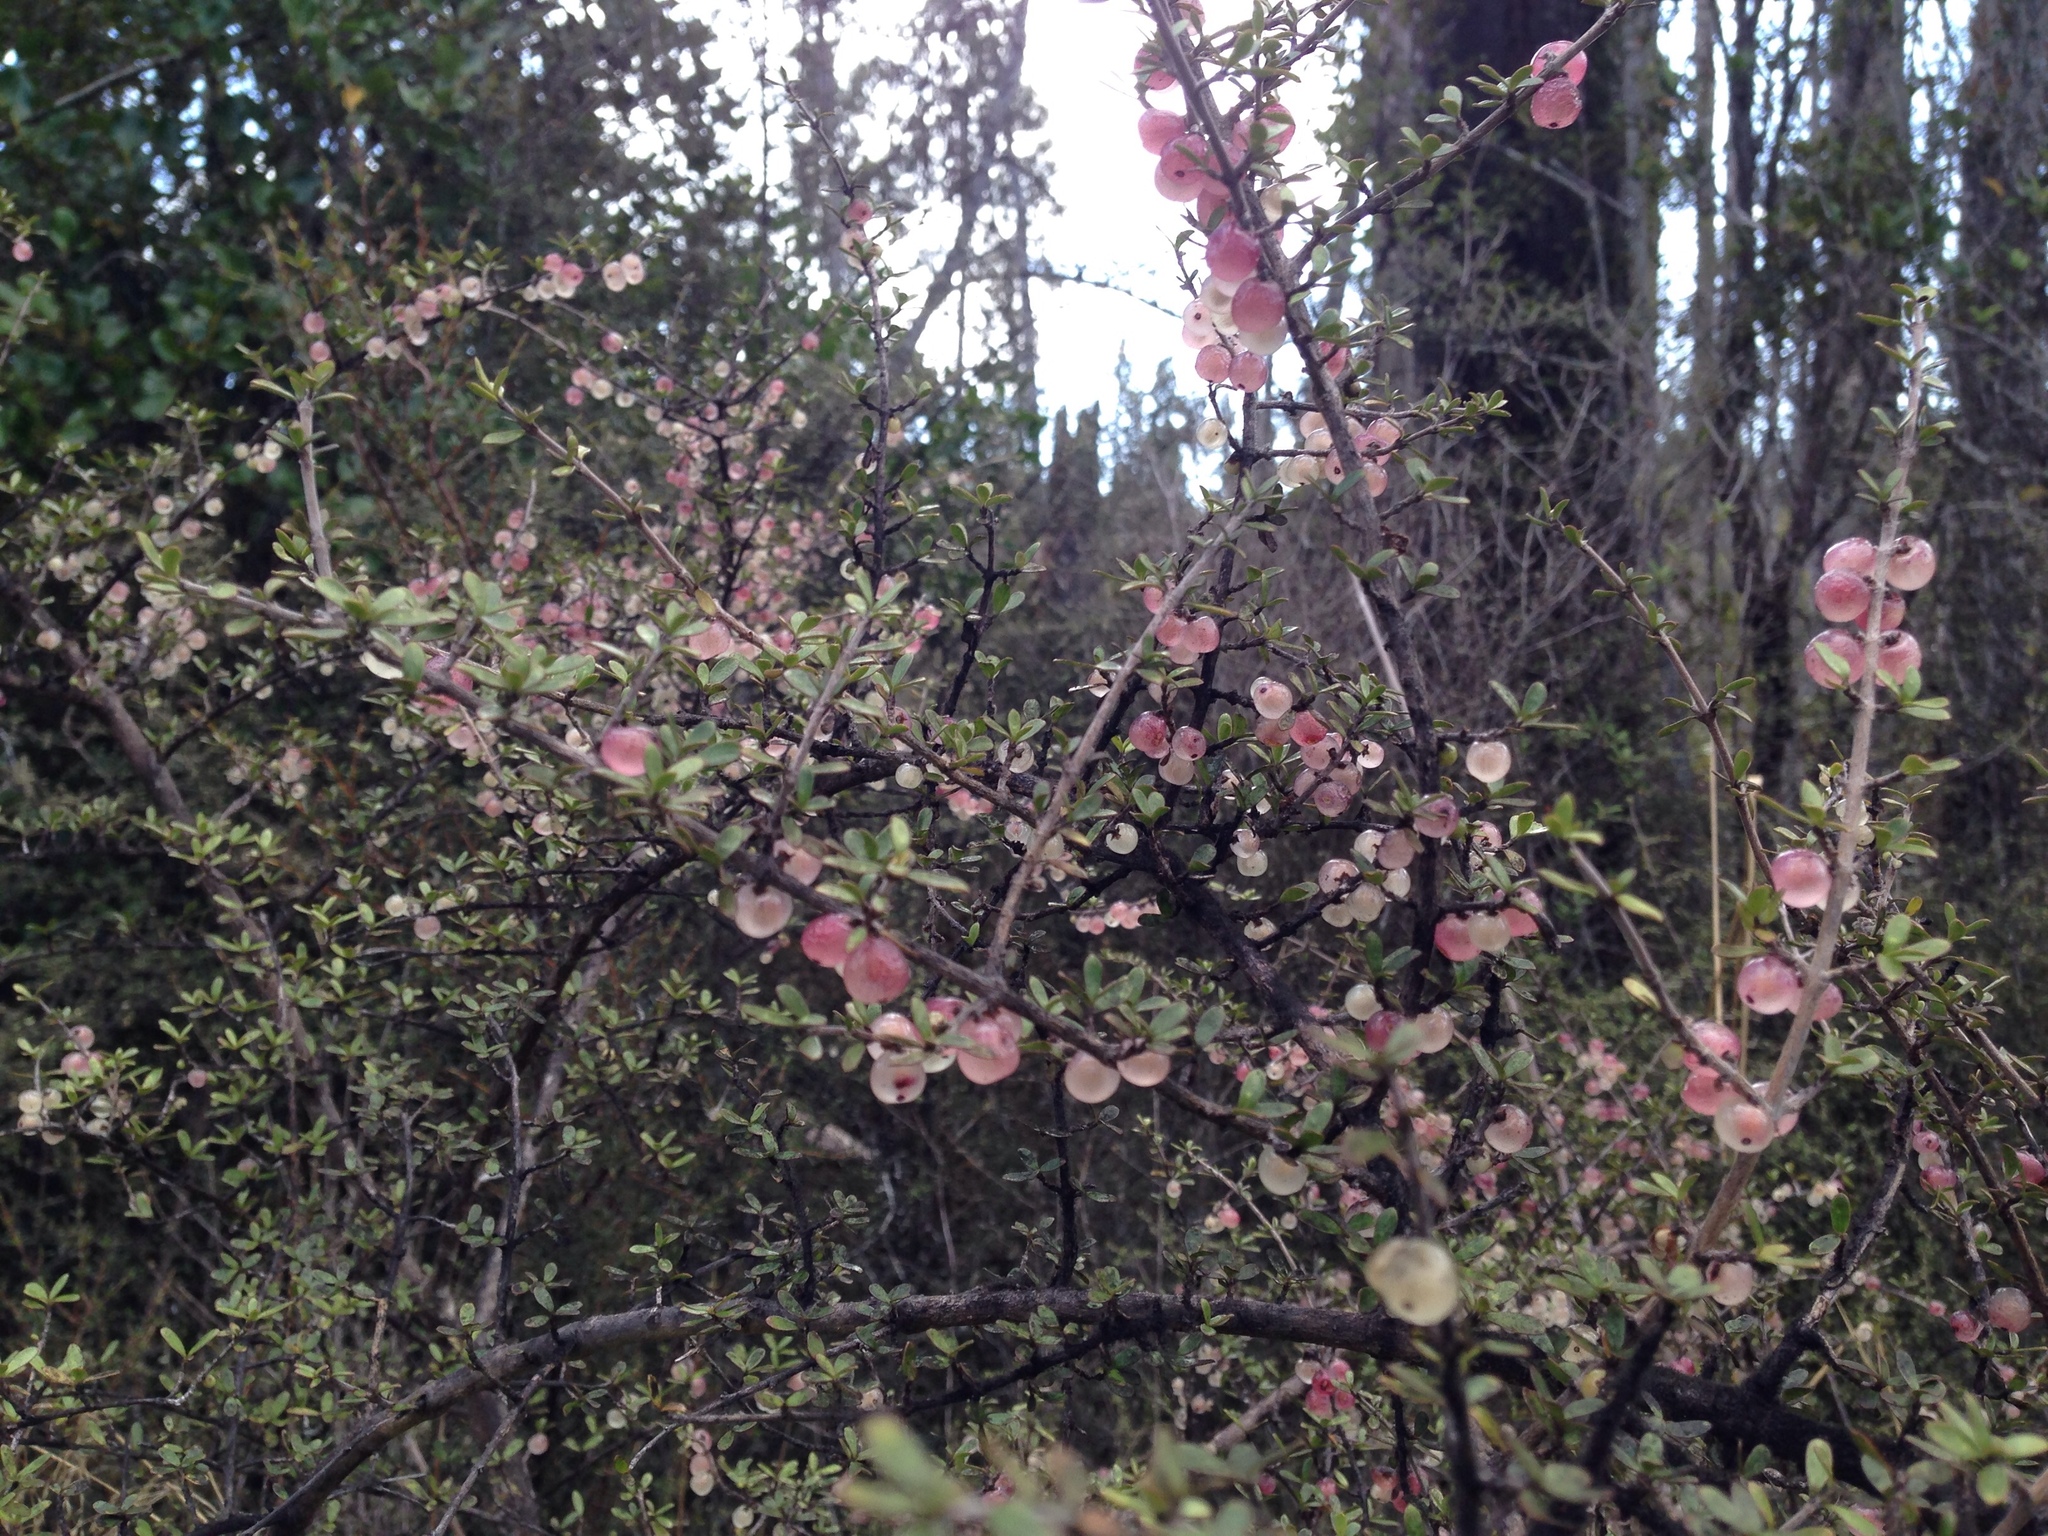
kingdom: Plantae
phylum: Tracheophyta
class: Magnoliopsida
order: Gentianales
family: Rubiaceae
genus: Coprosma
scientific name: Coprosma dumosa
